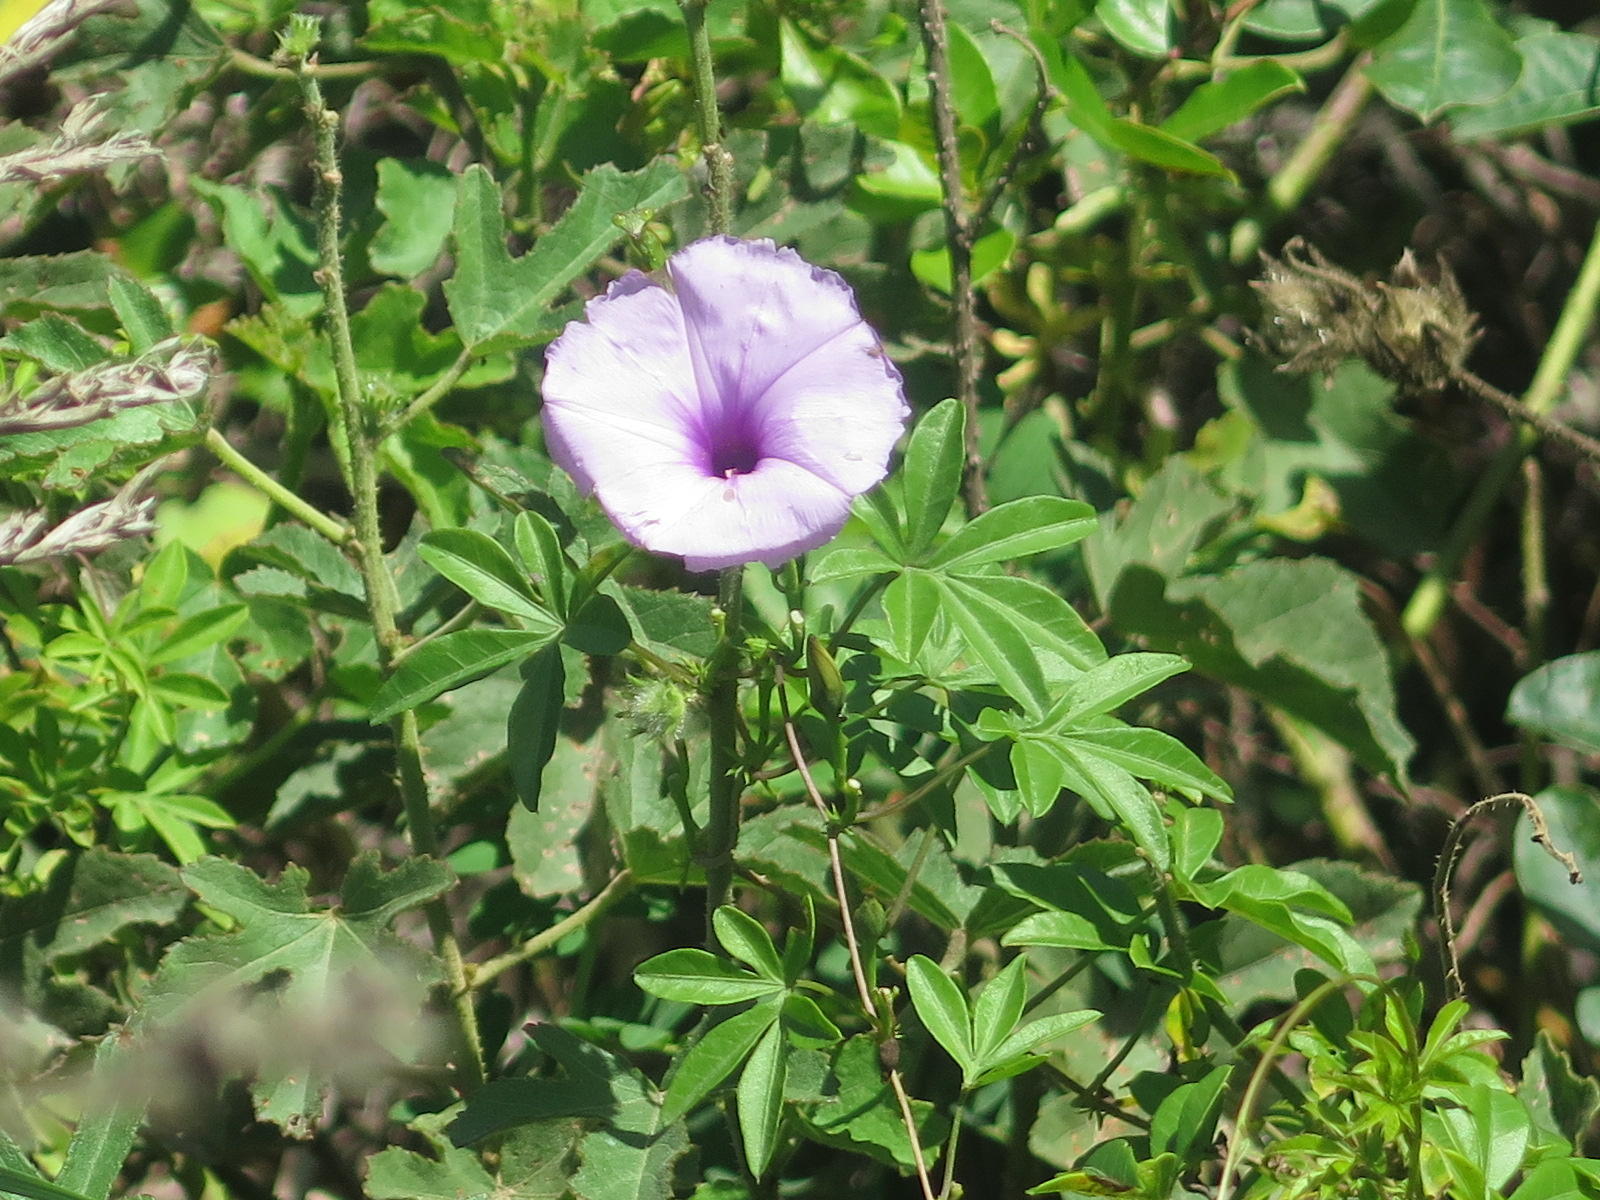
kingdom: Plantae
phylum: Tracheophyta
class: Magnoliopsida
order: Solanales
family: Convolvulaceae
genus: Ipomoea
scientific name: Ipomoea cairica
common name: Mile a minute vine
